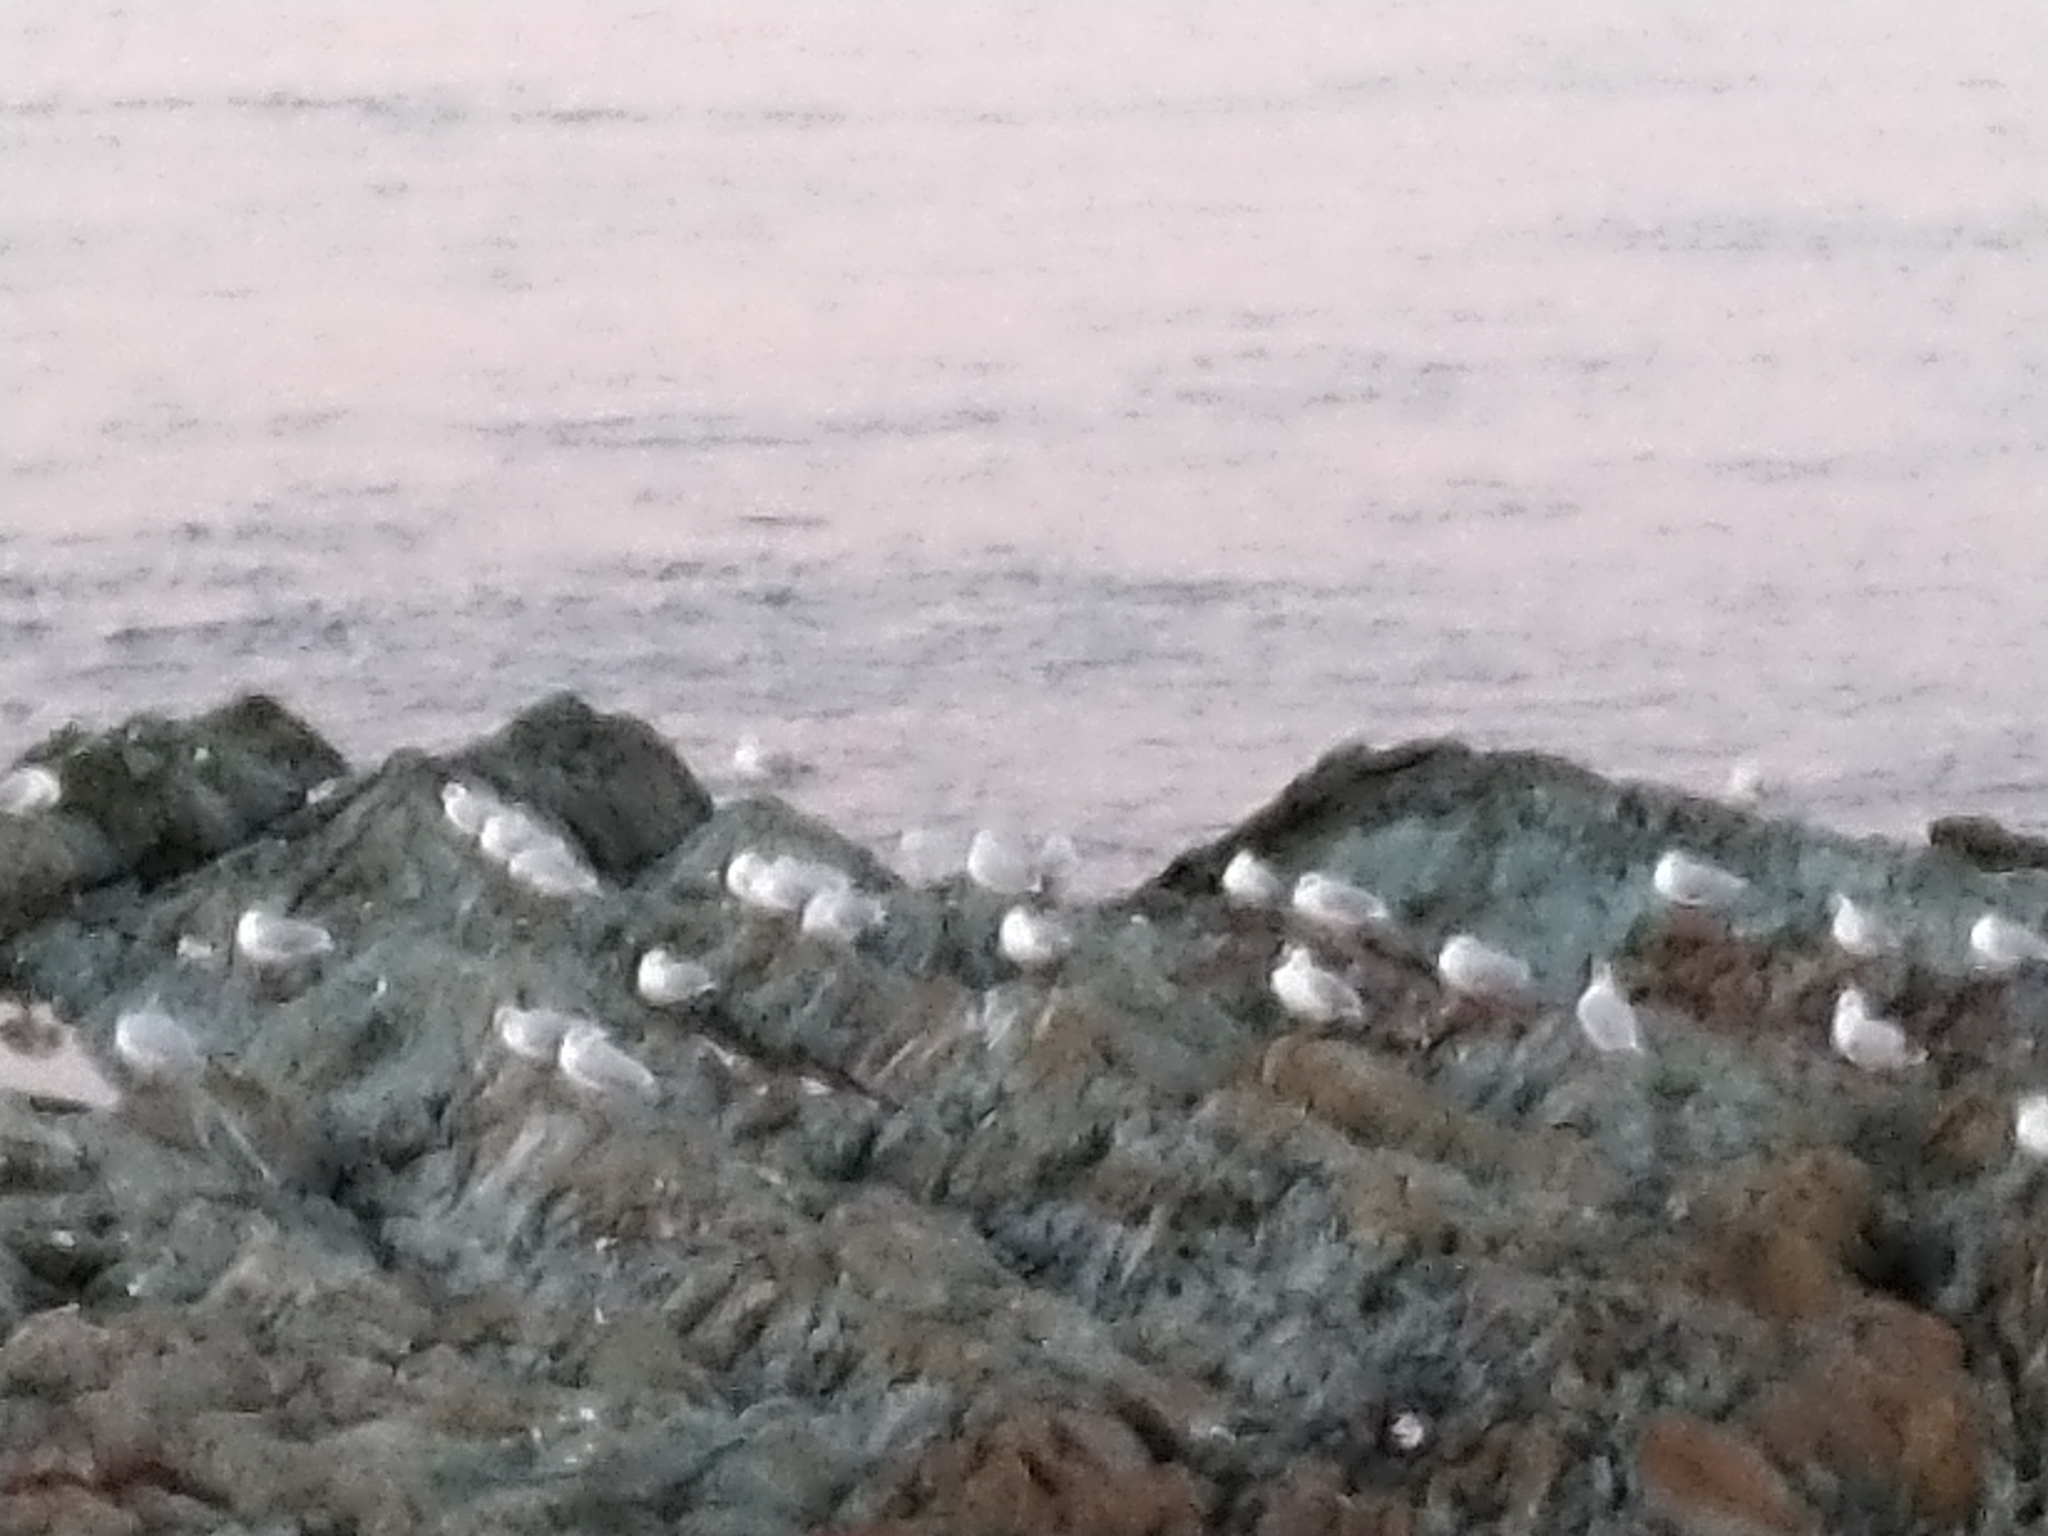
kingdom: Animalia
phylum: Chordata
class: Aves
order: Charadriiformes
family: Scolopacidae
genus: Calidris
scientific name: Calidris alba
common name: Sanderling
